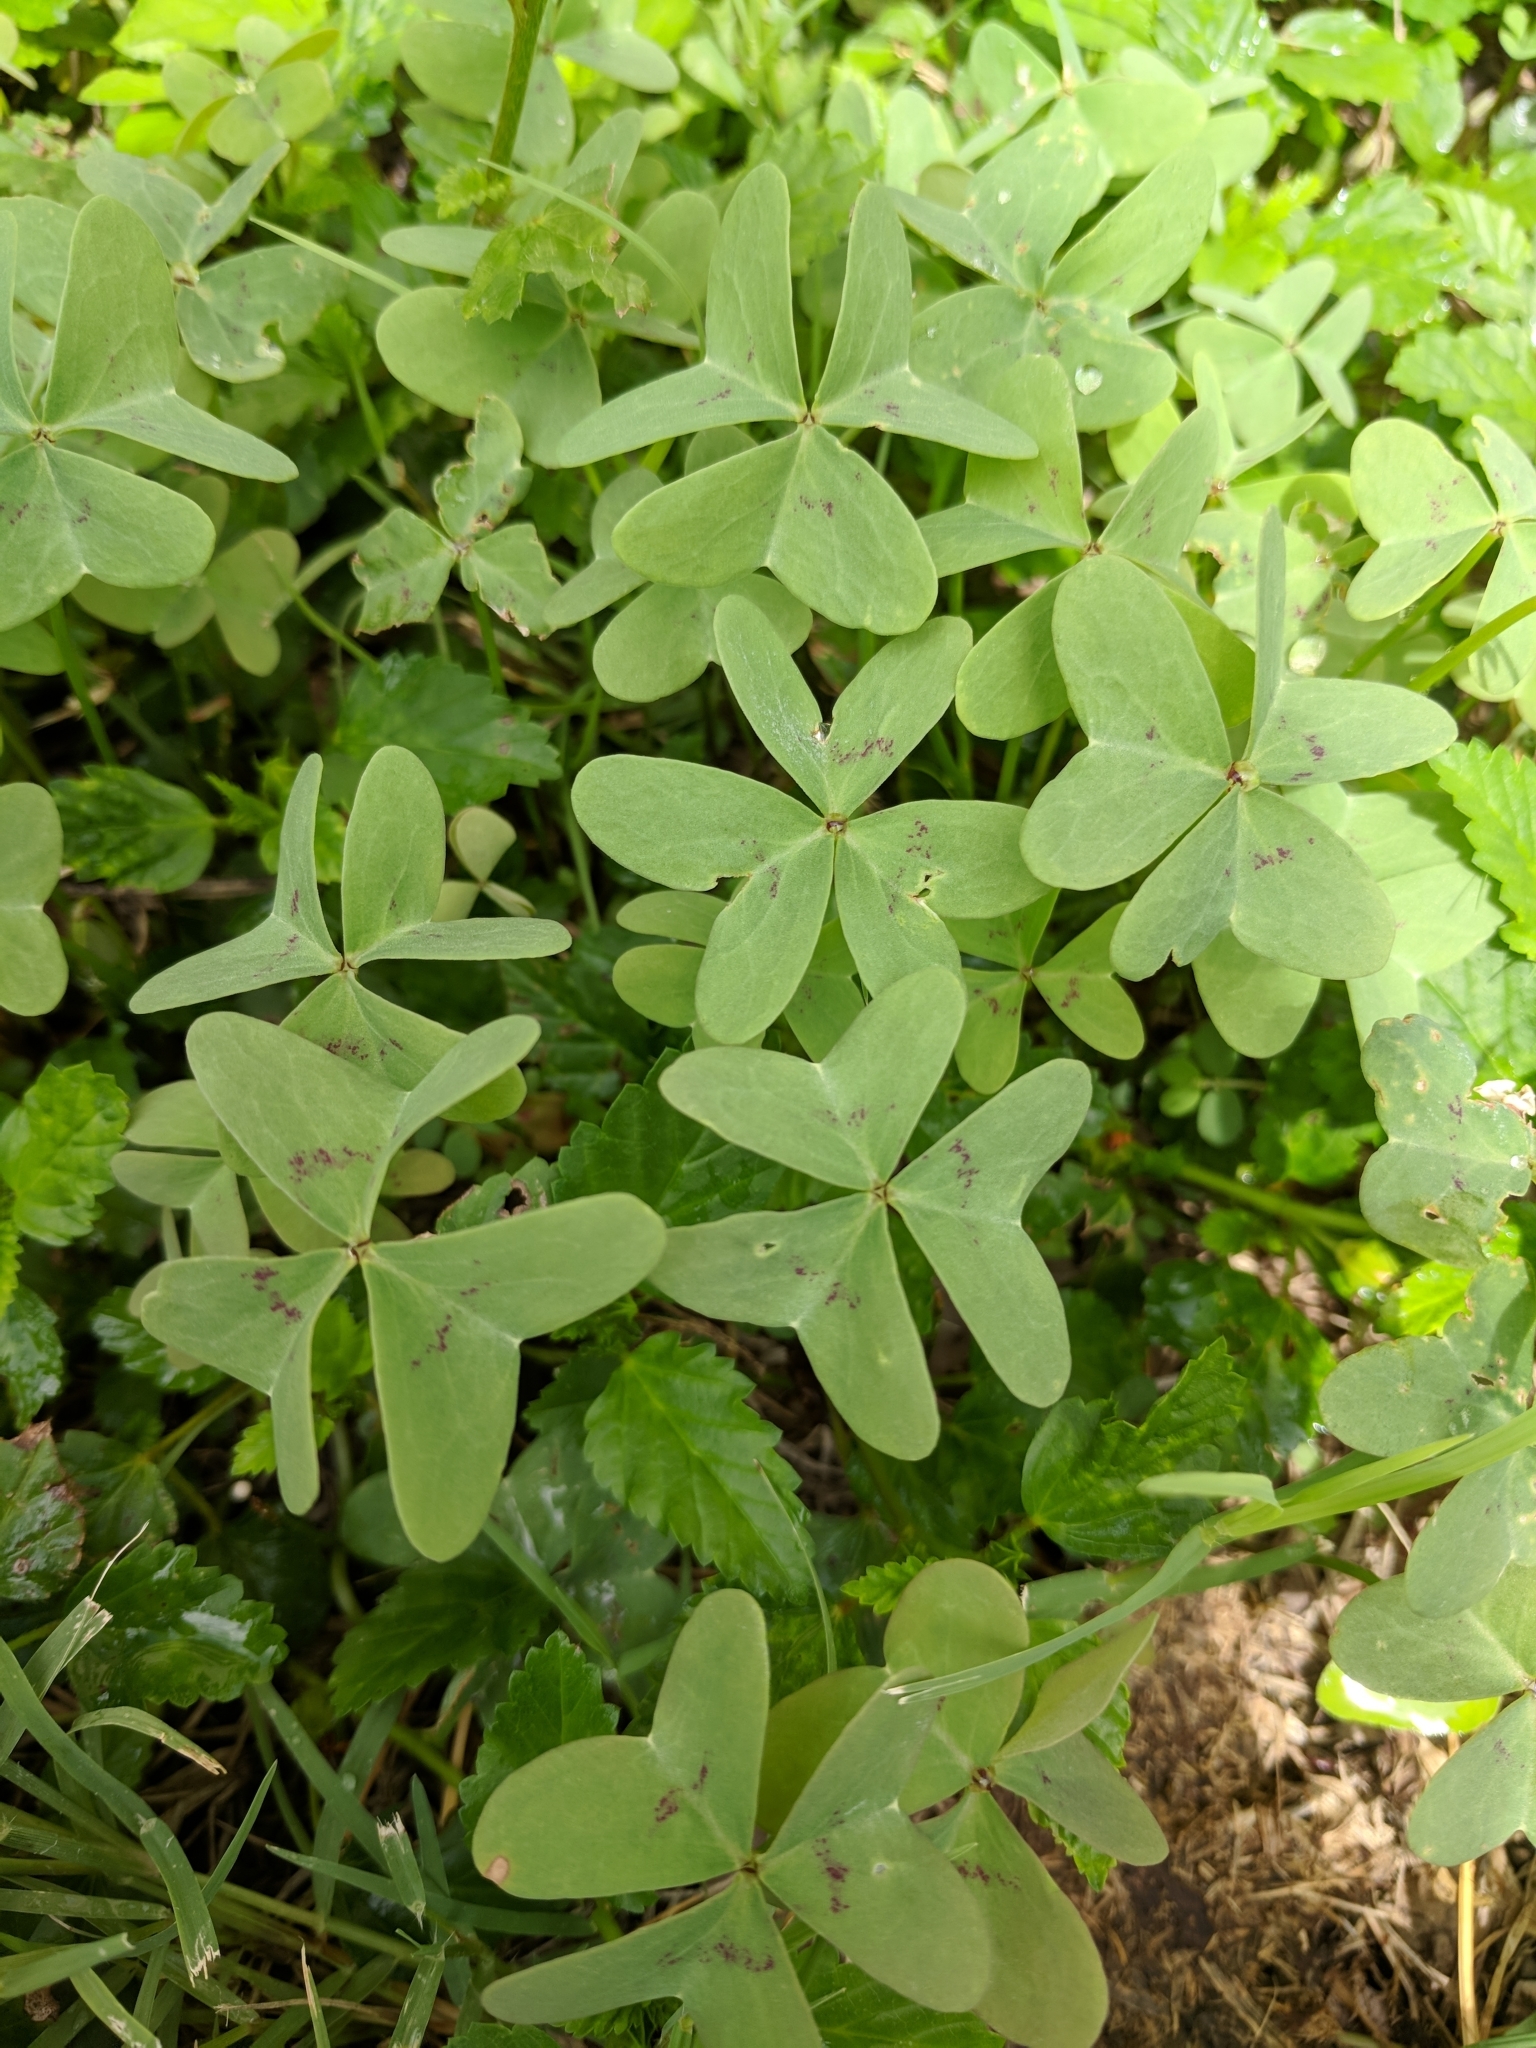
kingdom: Plantae
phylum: Tracheophyta
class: Magnoliopsida
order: Oxalidales
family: Oxalidaceae
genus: Oxalis
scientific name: Oxalis drummondii
